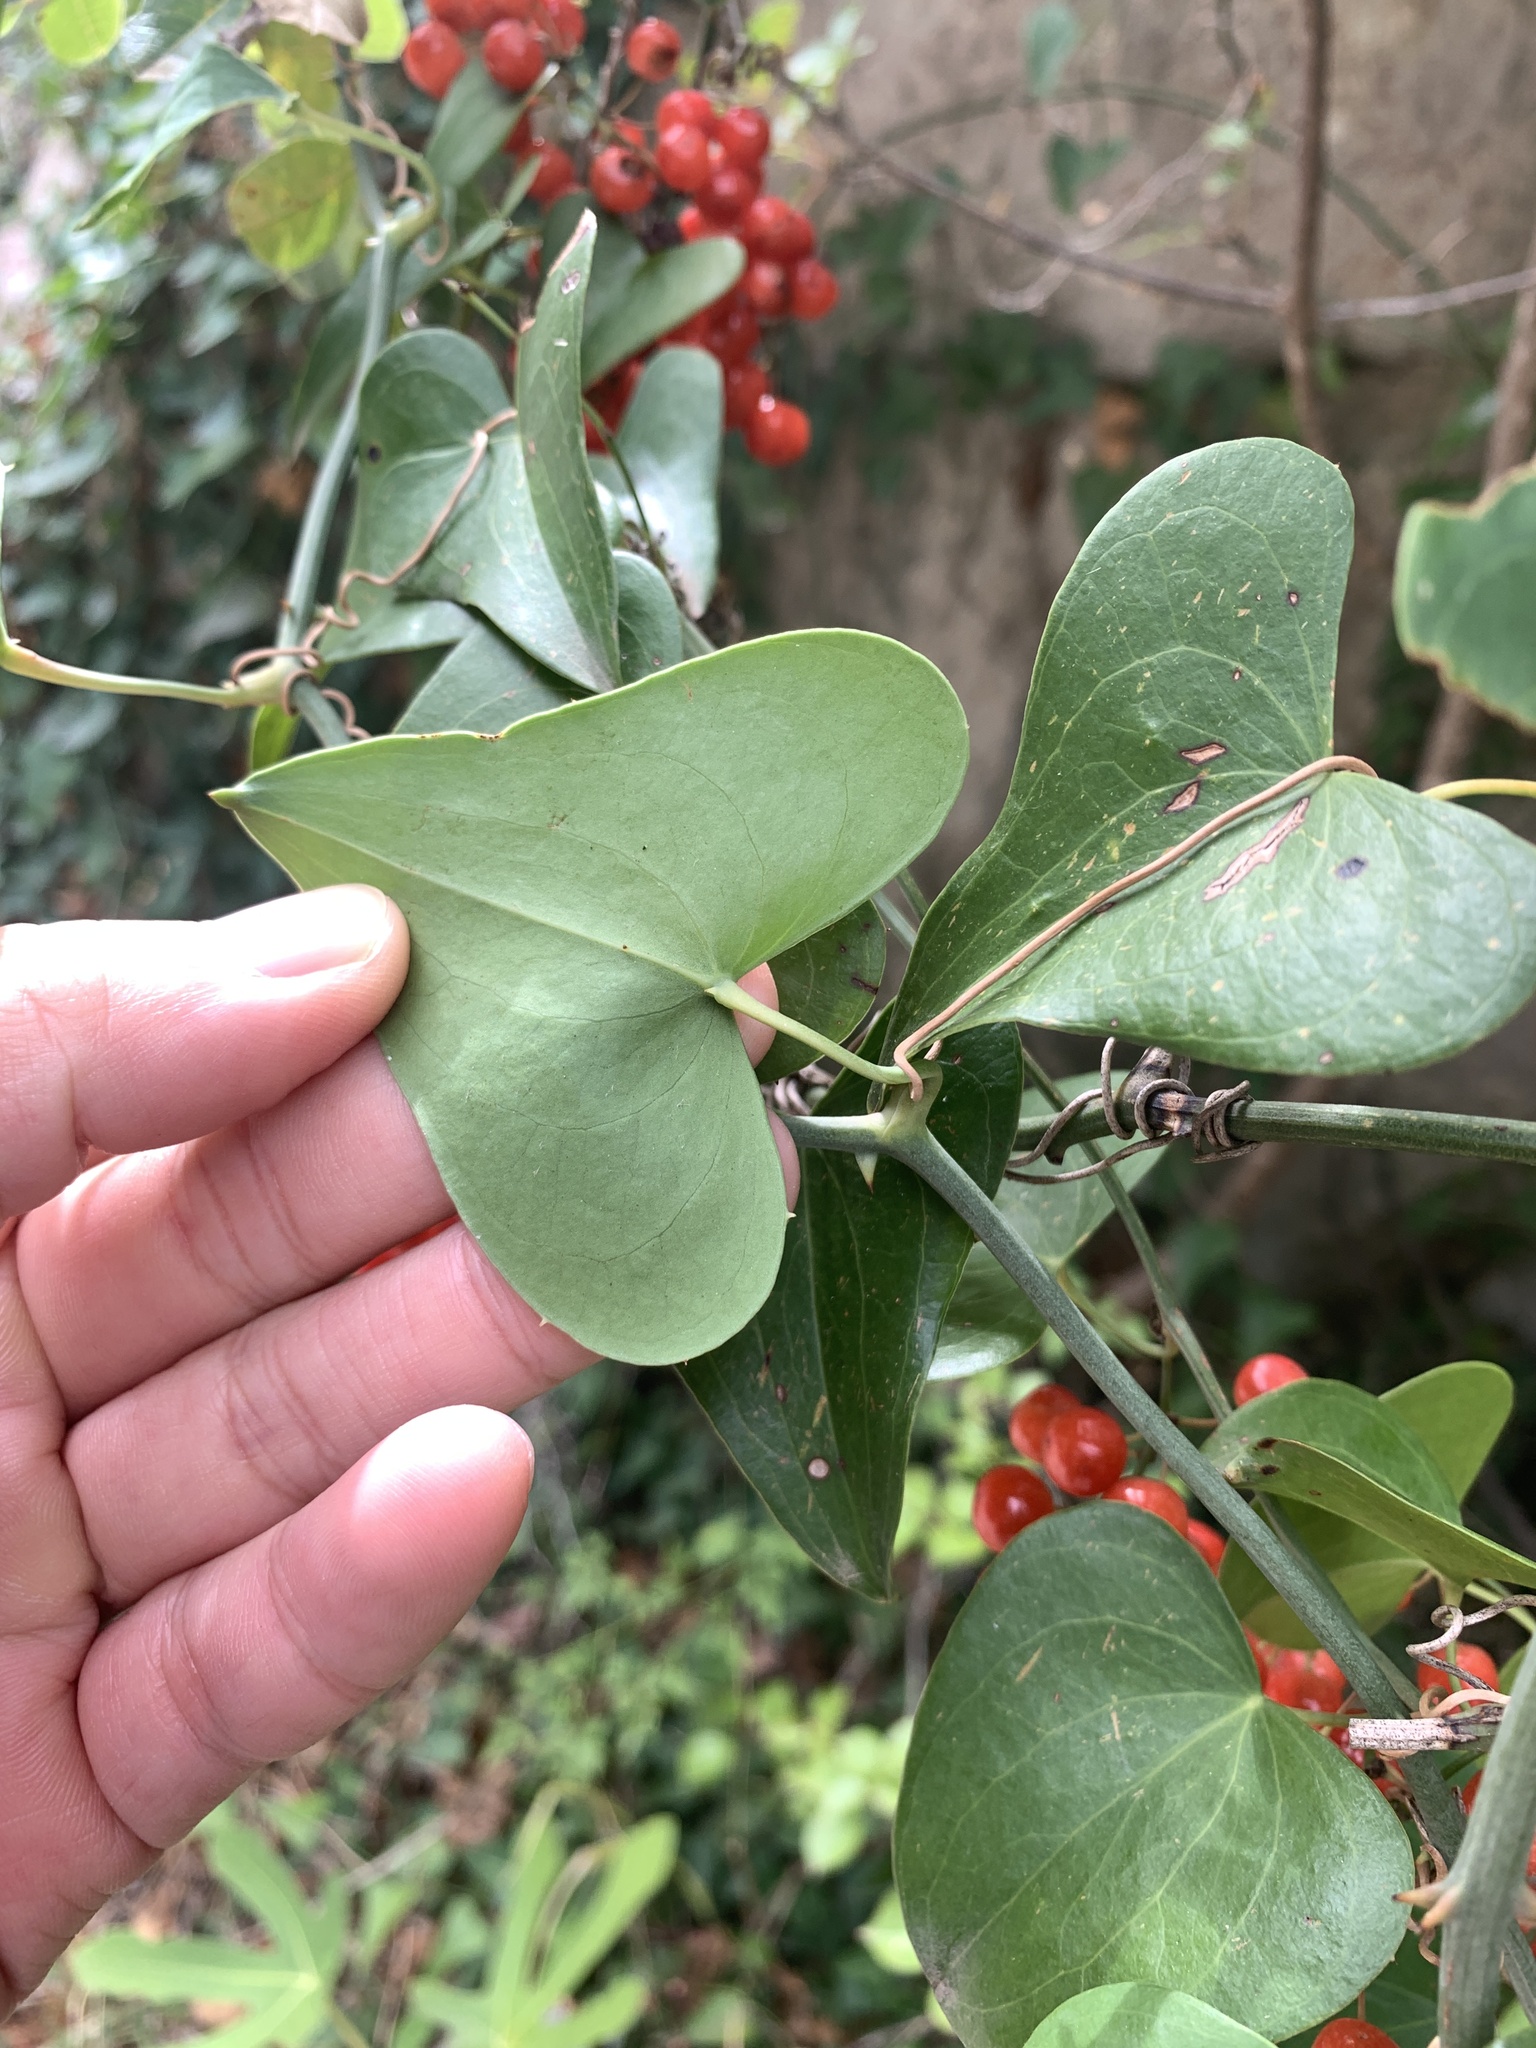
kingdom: Plantae
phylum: Tracheophyta
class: Liliopsida
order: Liliales
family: Smilacaceae
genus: Smilax
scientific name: Smilax aspera
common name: Common smilax
